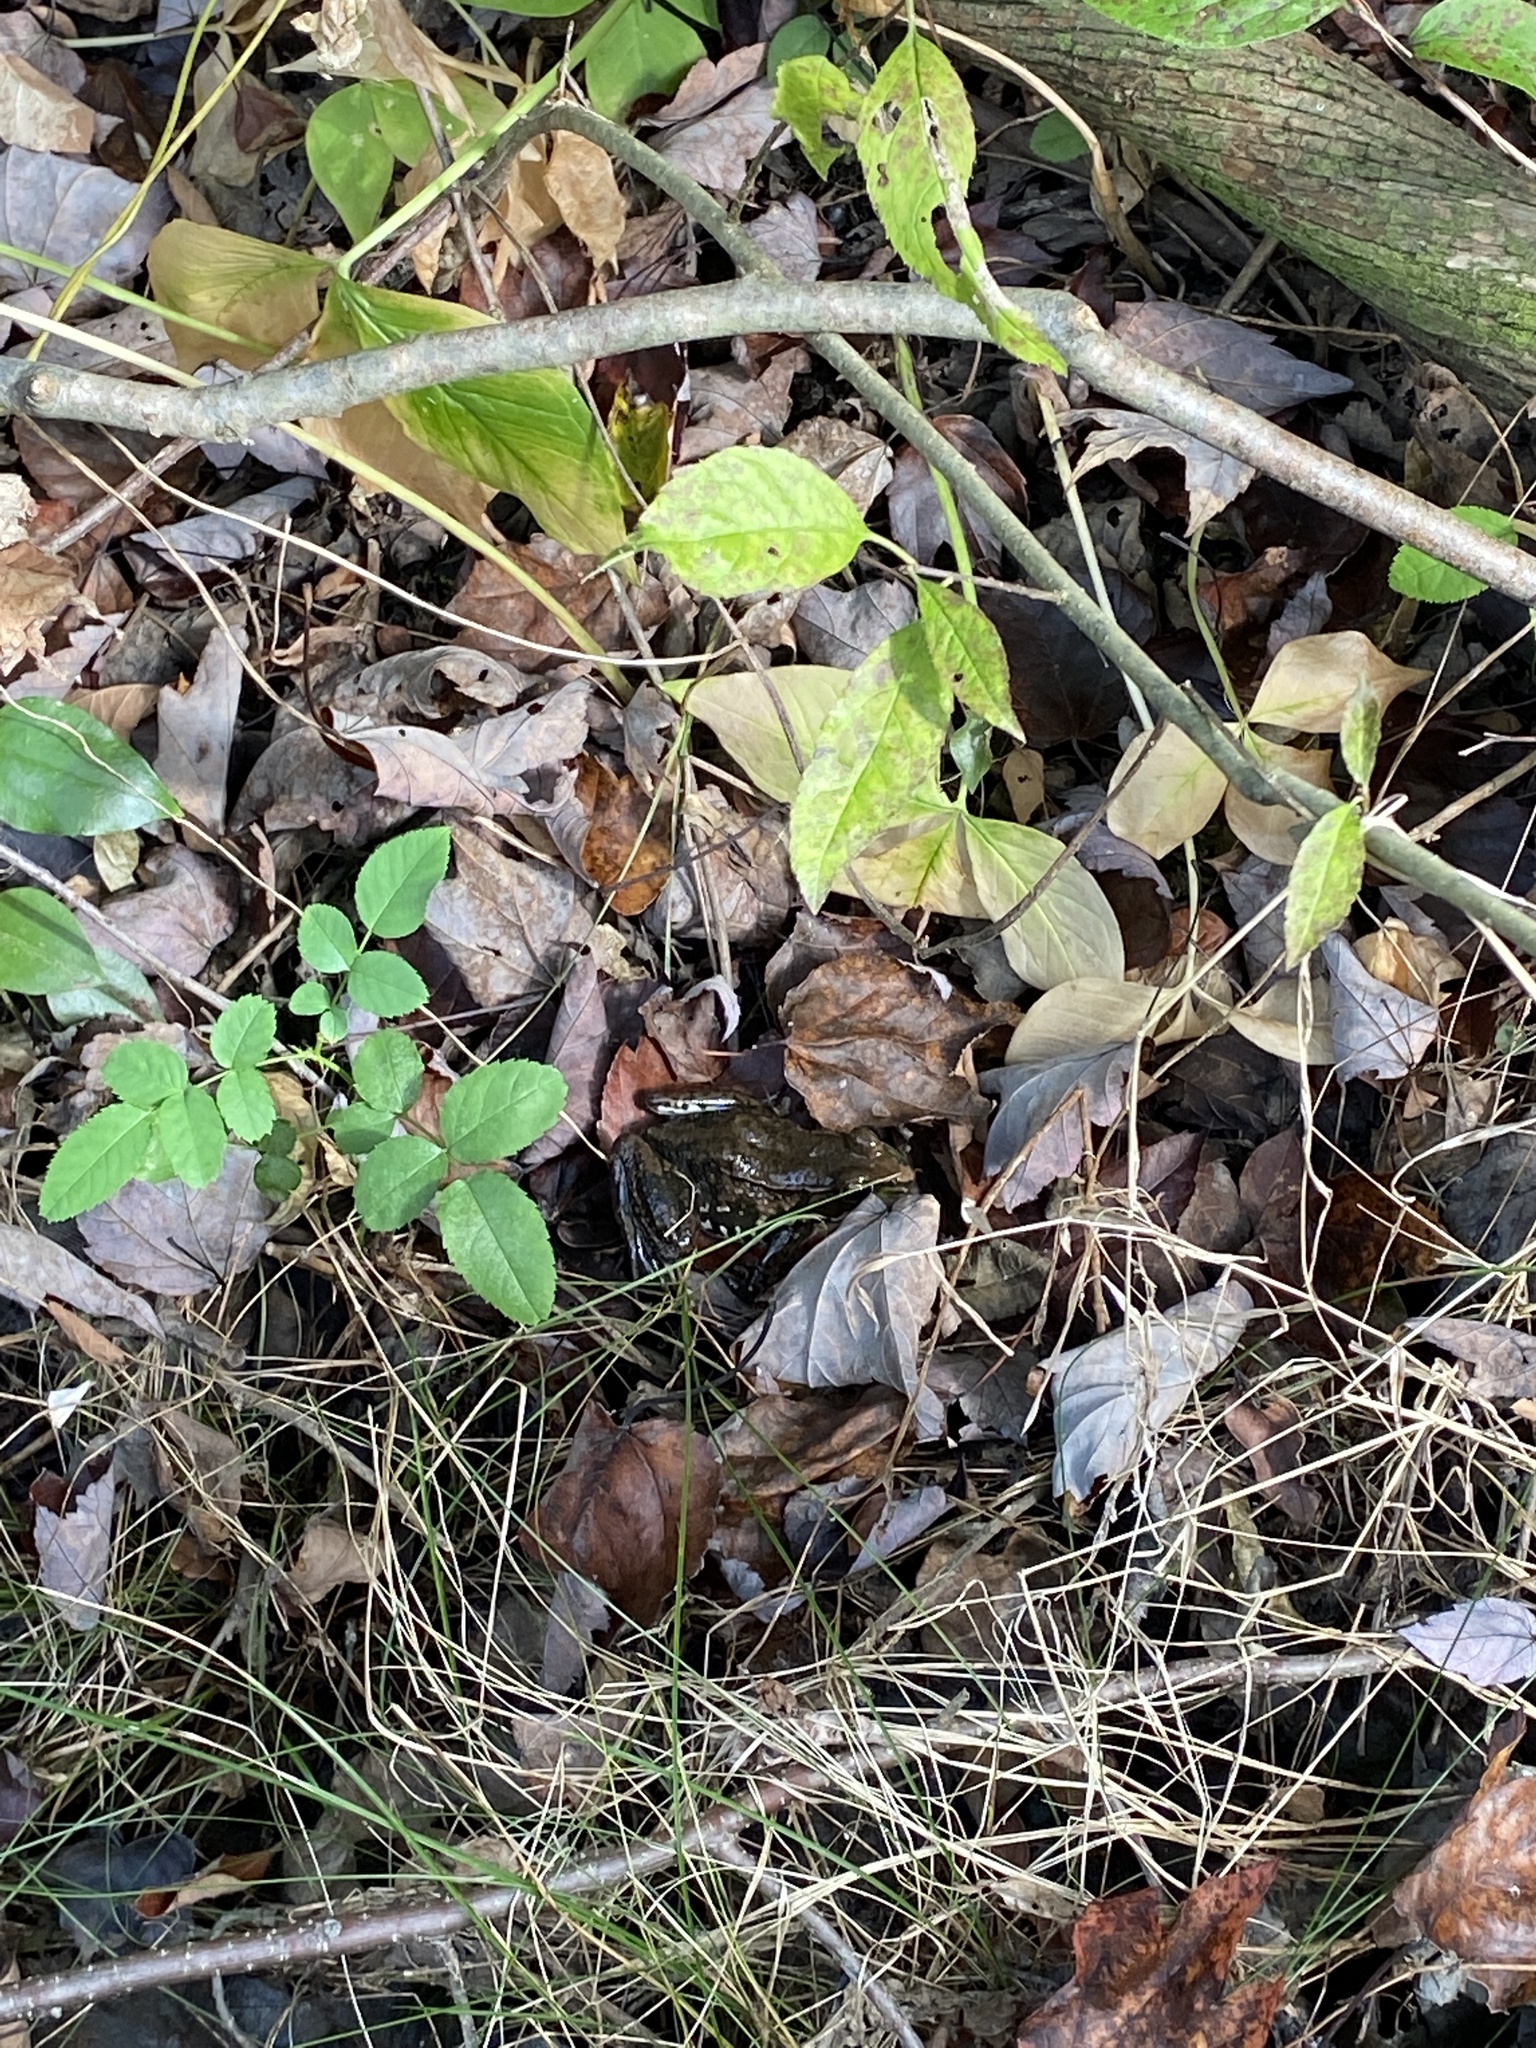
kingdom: Animalia
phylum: Chordata
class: Amphibia
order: Anura
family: Ranidae
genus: Lithobates
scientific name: Lithobates clamitans
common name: Green frog
